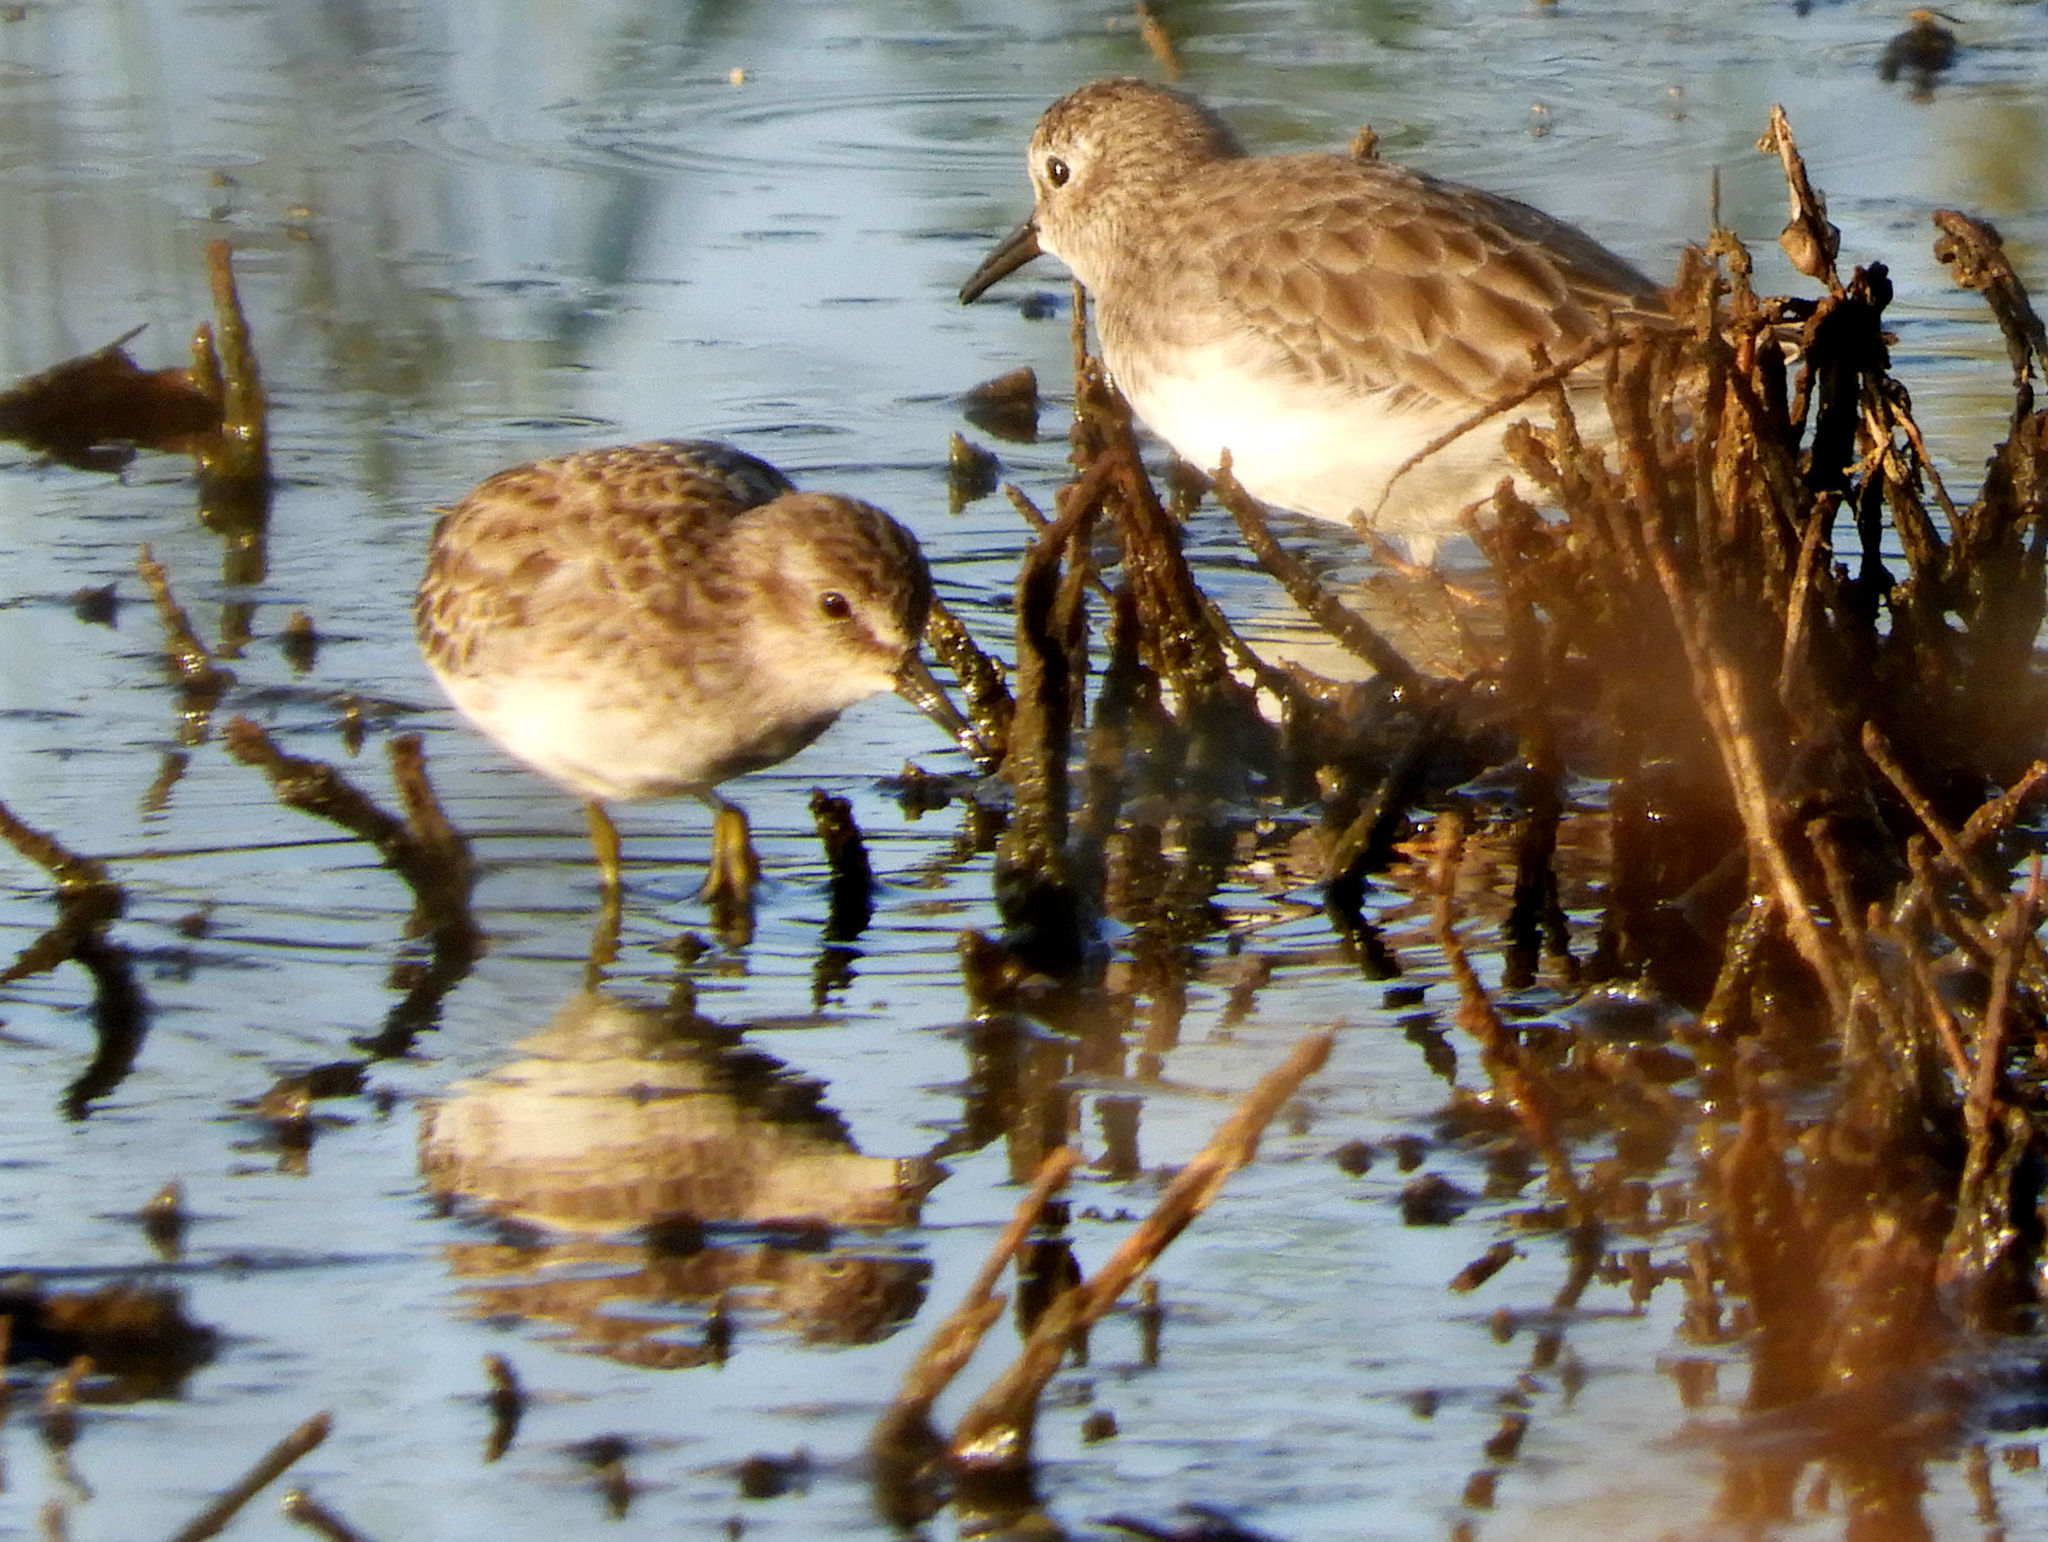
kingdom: Animalia
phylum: Chordata
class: Aves
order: Charadriiformes
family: Scolopacidae
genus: Calidris
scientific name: Calidris minutilla
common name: Least sandpiper
